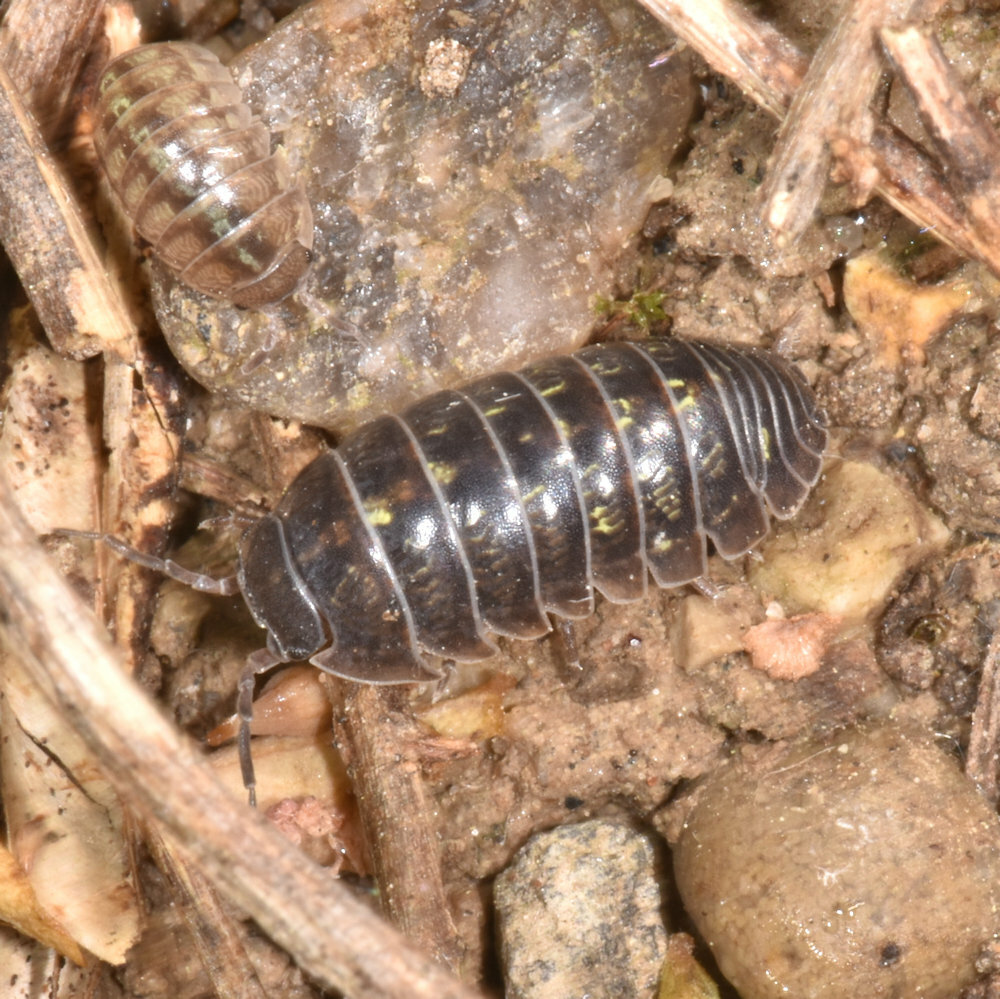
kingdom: Animalia
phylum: Arthropoda
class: Malacostraca
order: Isopoda
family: Armadillidiidae
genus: Armadillidium
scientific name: Armadillidium vulgare
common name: Common pill woodlouse
